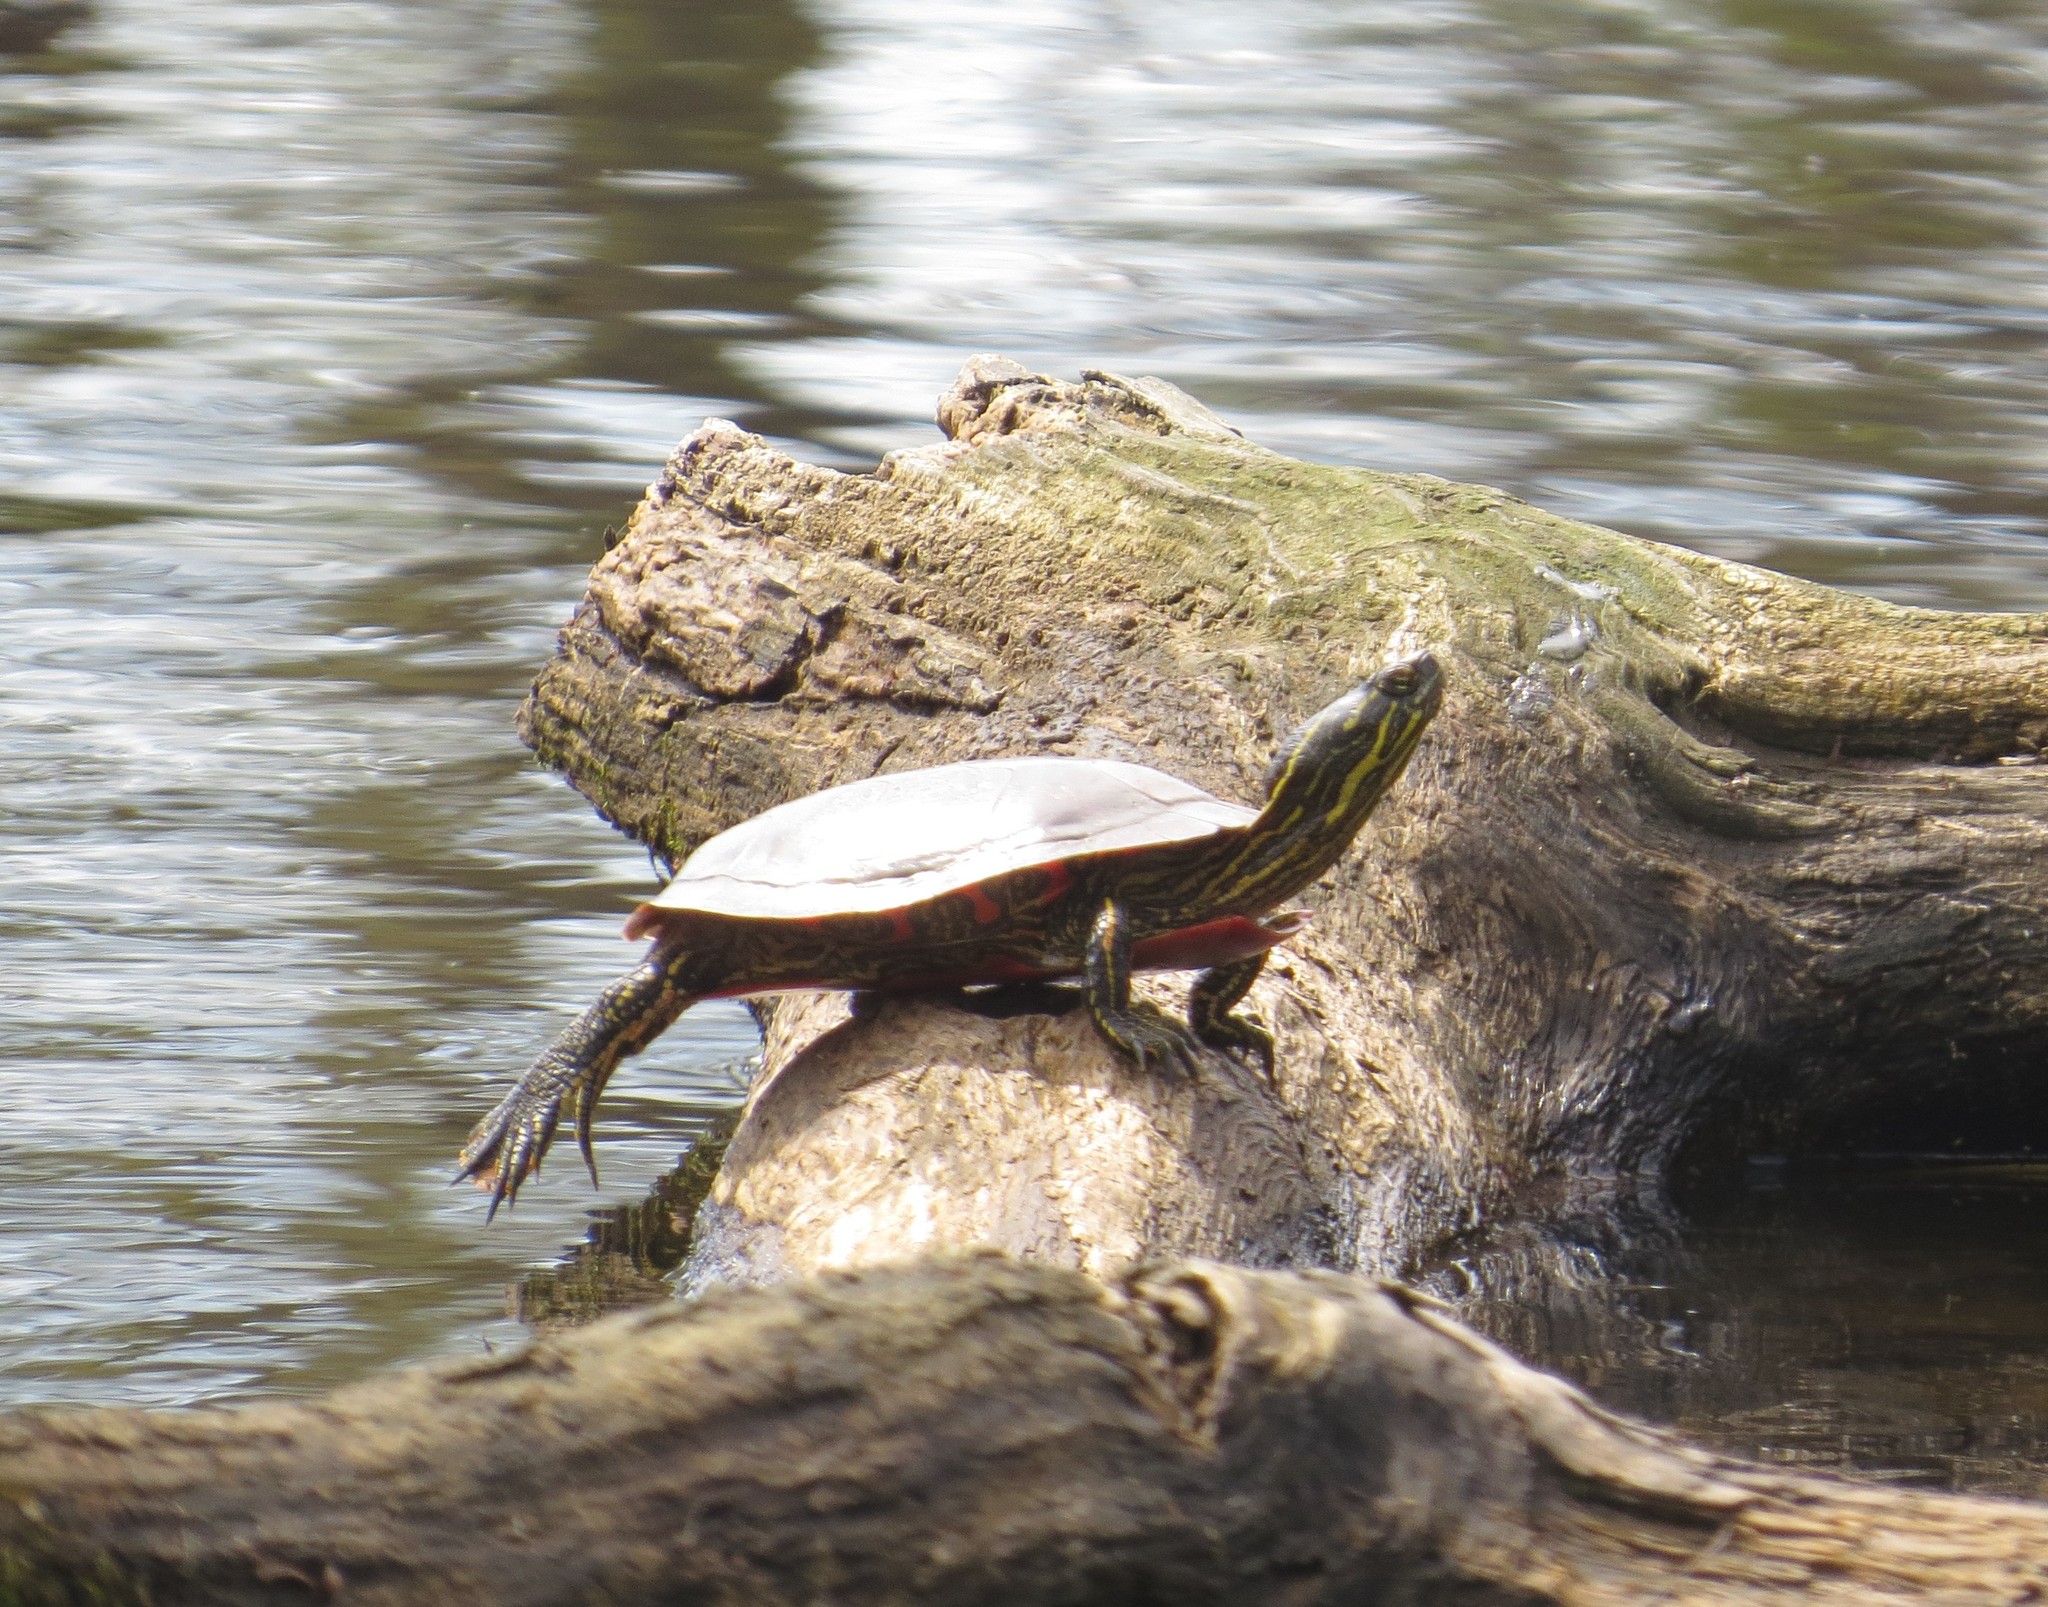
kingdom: Animalia
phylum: Chordata
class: Testudines
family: Emydidae
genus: Chrysemys
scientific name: Chrysemys picta
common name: Painted turtle
